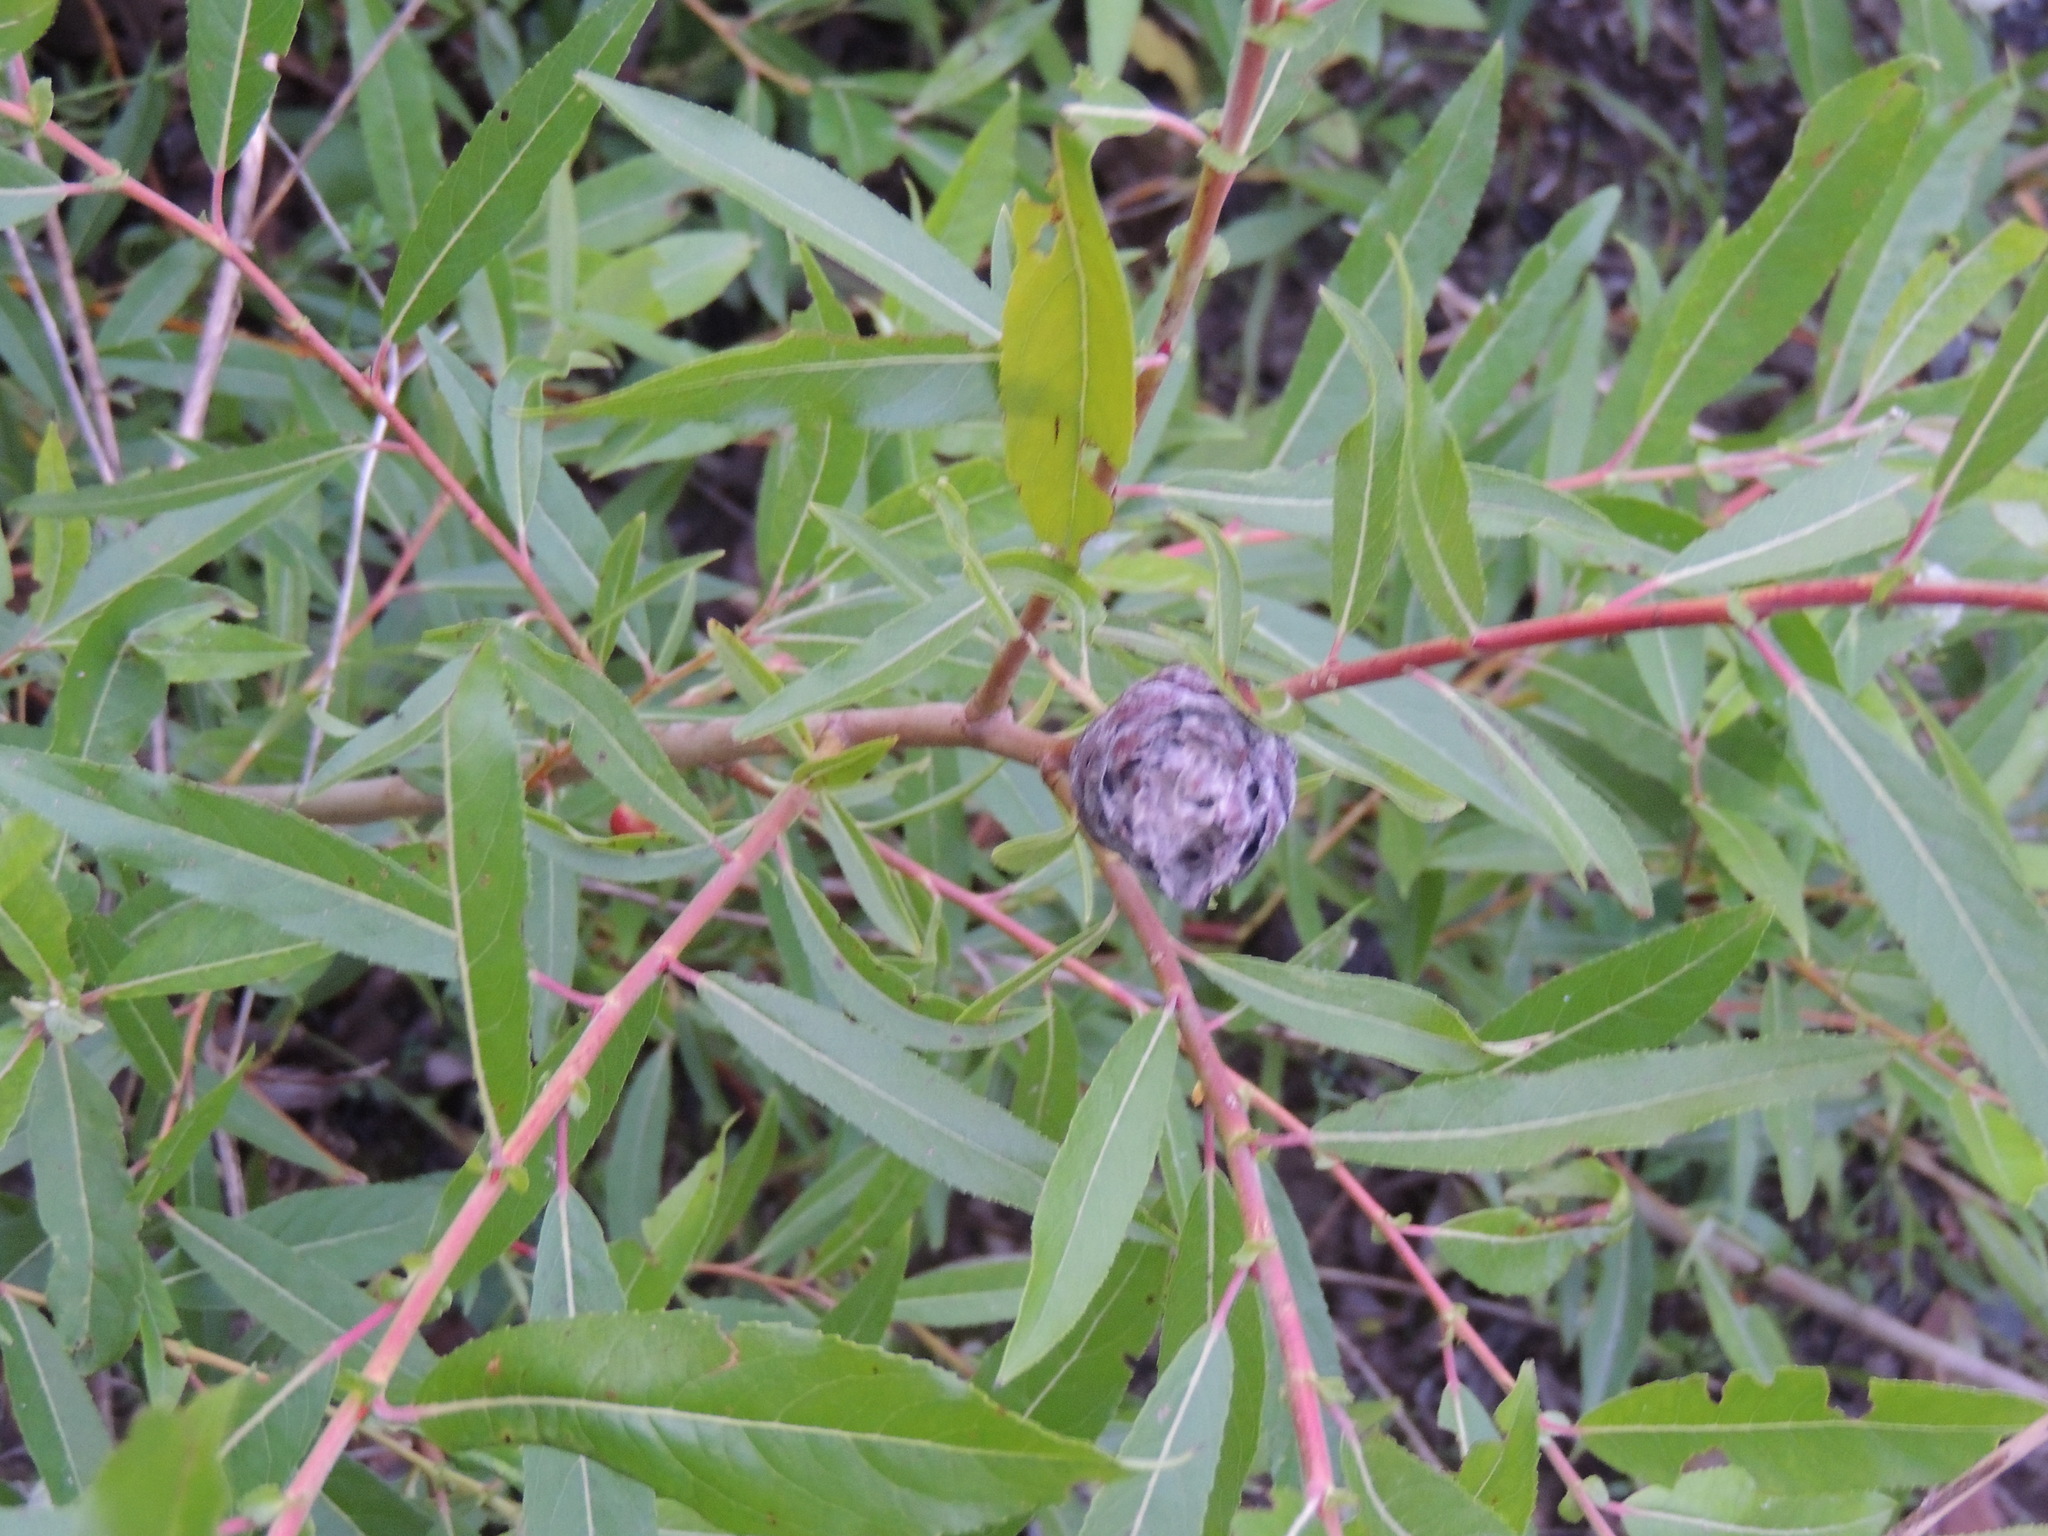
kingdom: Animalia
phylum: Arthropoda
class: Insecta
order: Diptera
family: Cecidomyiidae
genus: Rabdophaga
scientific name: Rabdophaga strobiloides
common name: Willow pinecone gall midge
